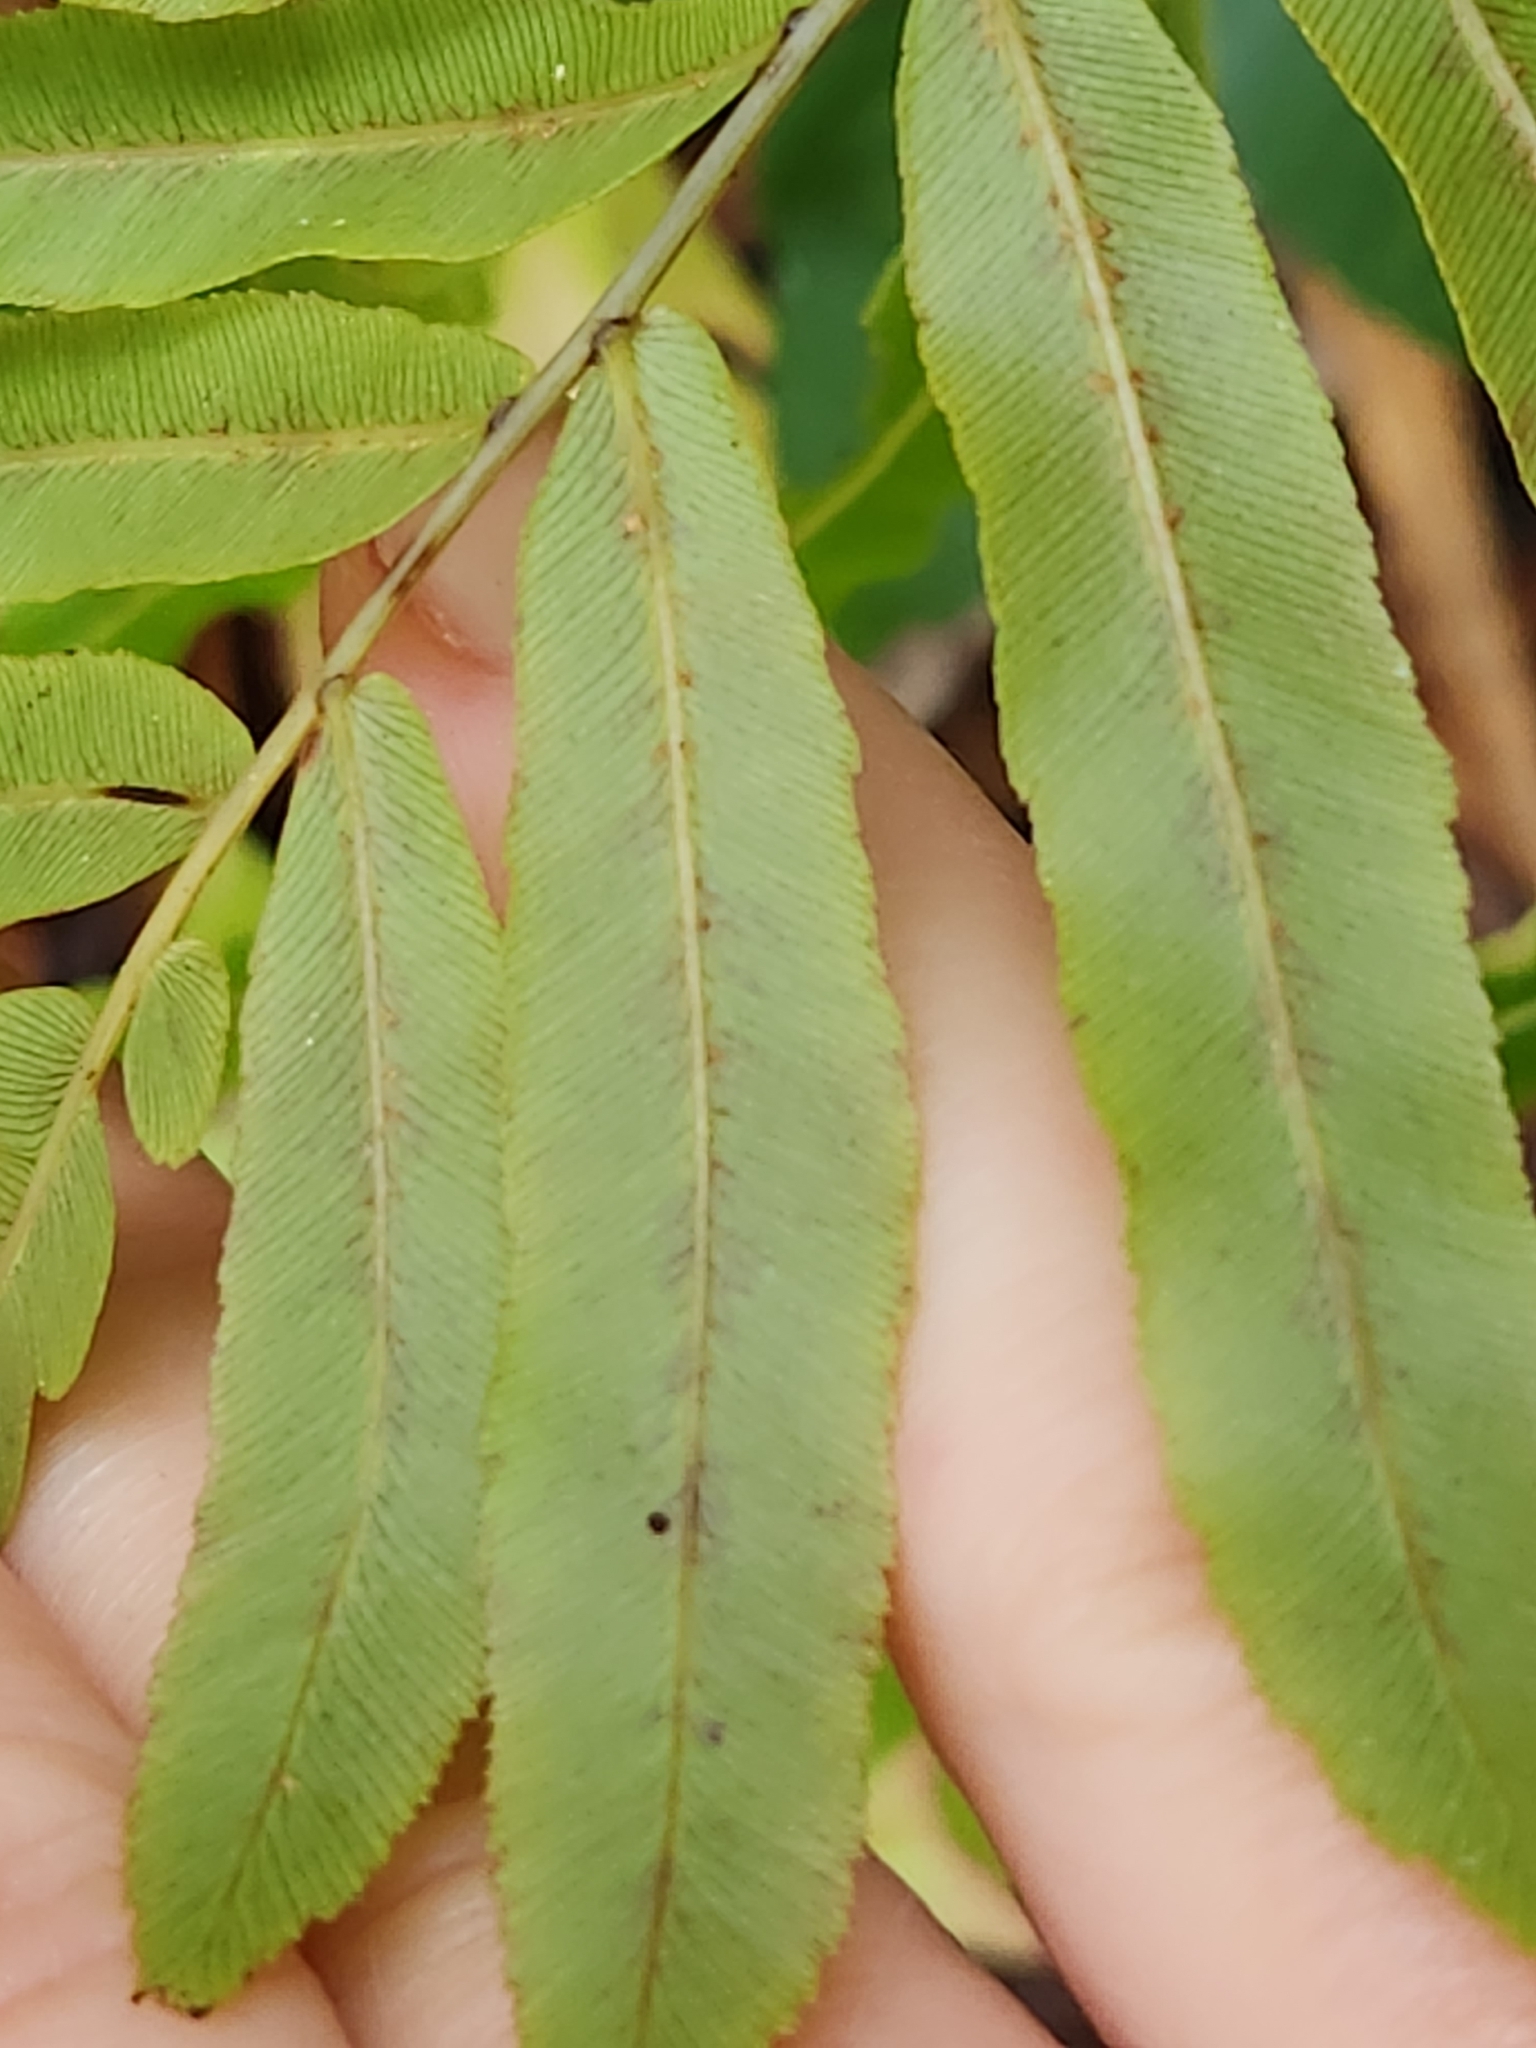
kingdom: Plantae
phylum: Tracheophyta
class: Polypodiopsida
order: Polypodiales
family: Blechnaceae
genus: Telmatoblechnum
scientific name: Telmatoblechnum serrulatum
